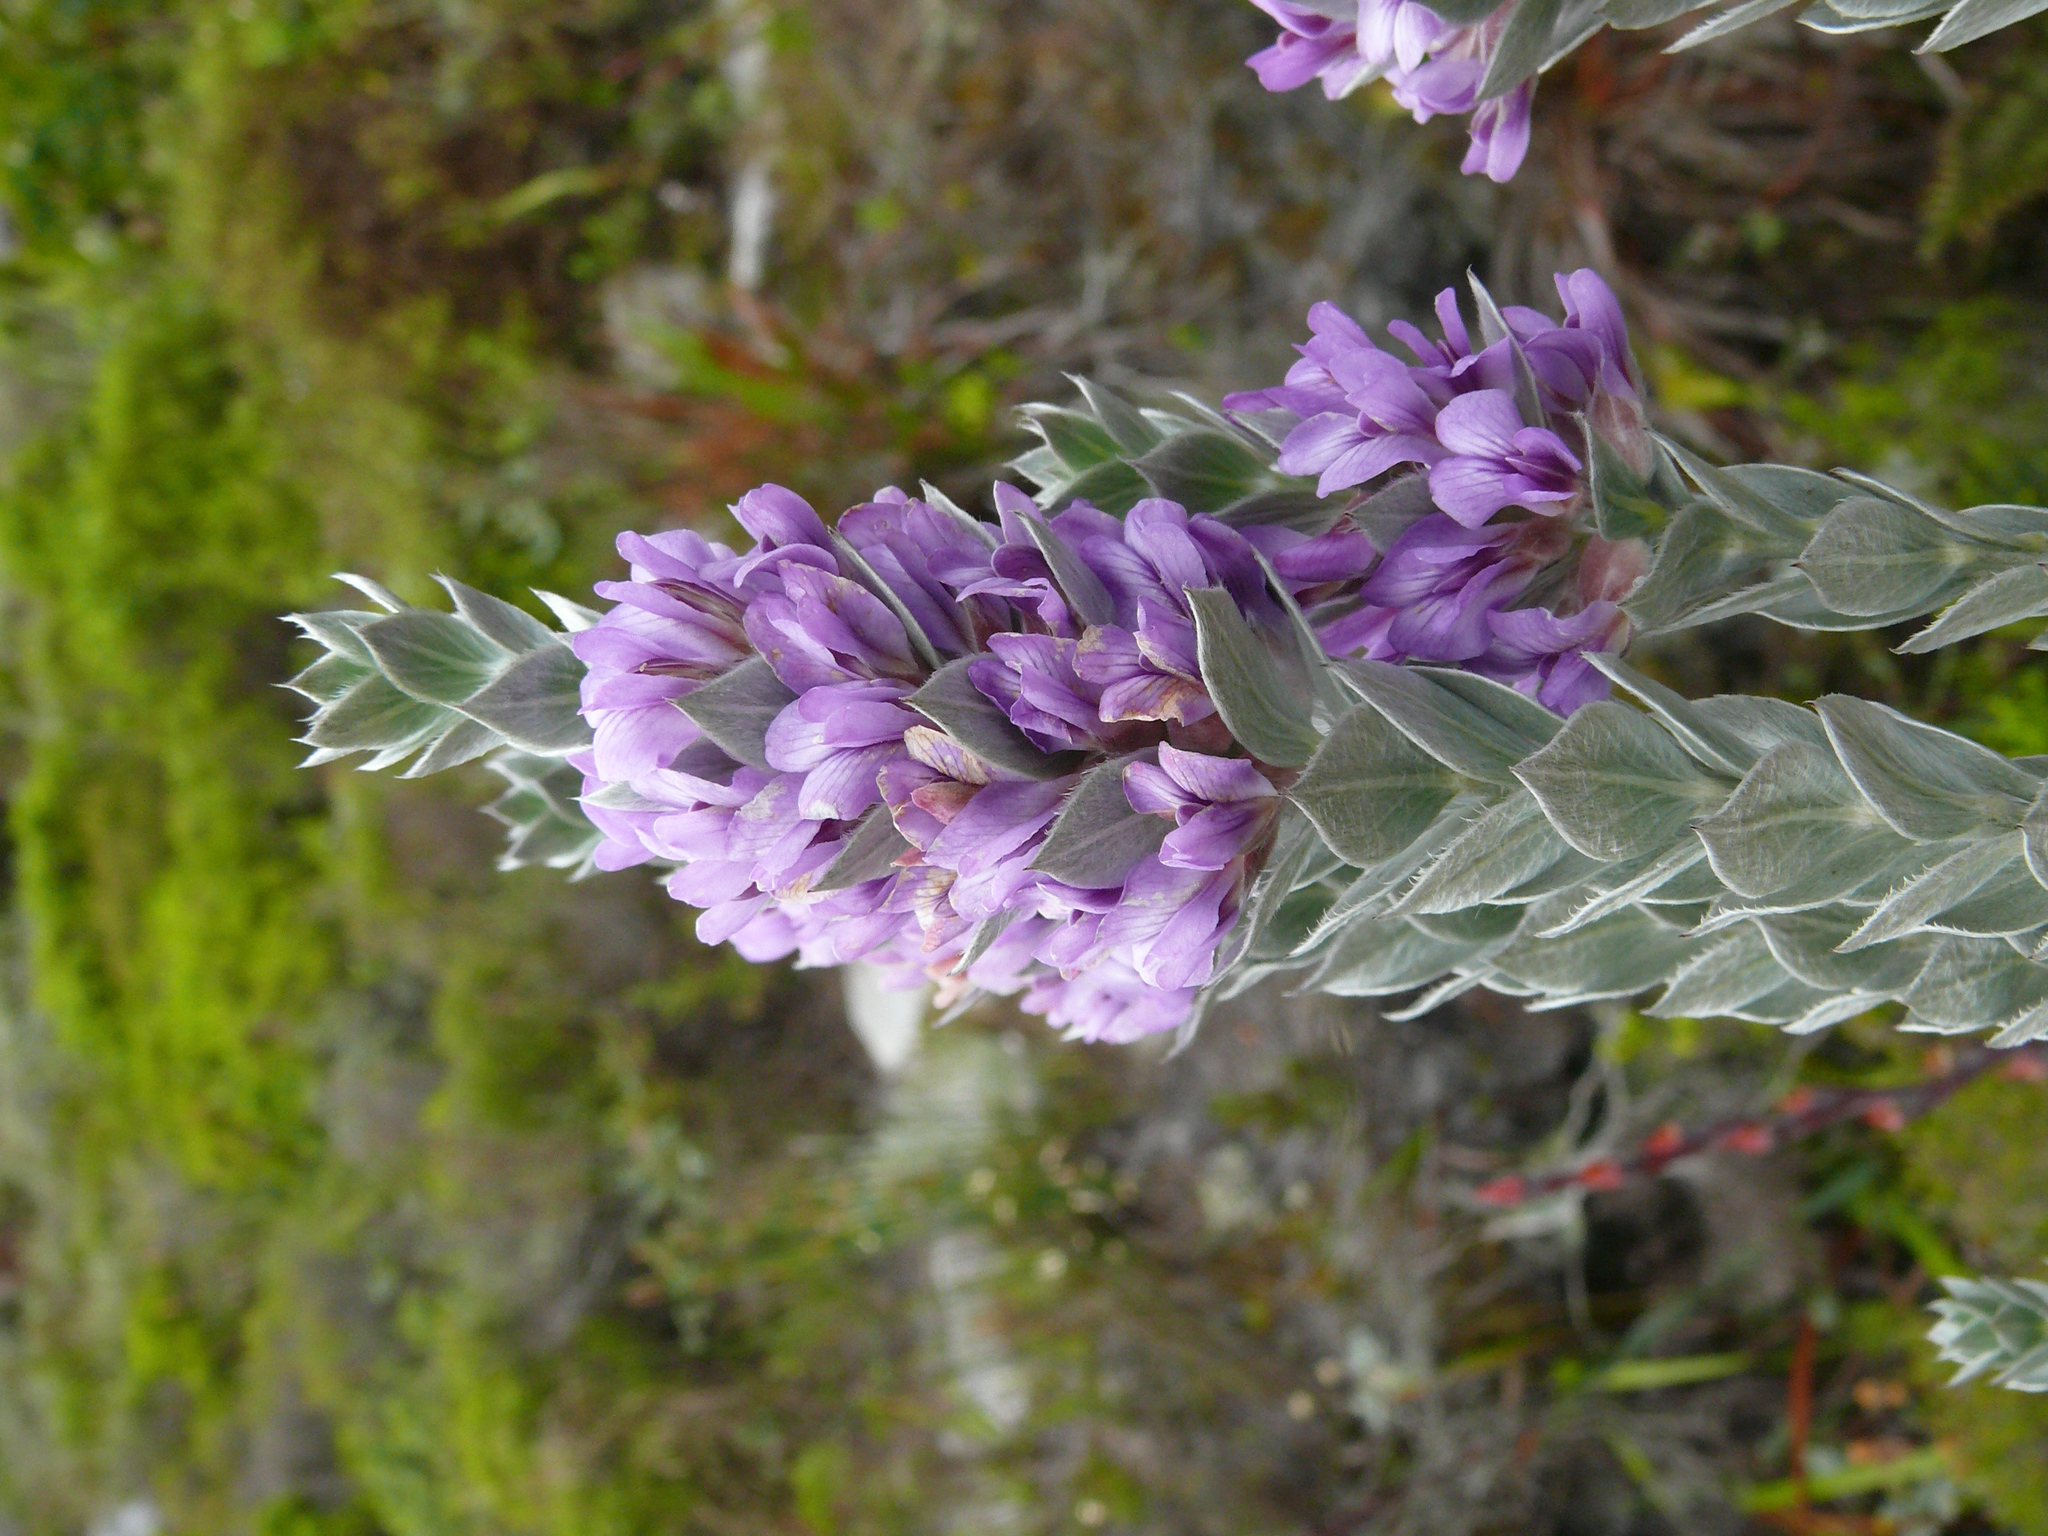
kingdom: Plantae
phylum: Tracheophyta
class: Magnoliopsida
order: Fabales
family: Fabaceae
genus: Amphithalea
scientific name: Amphithalea imbricata
